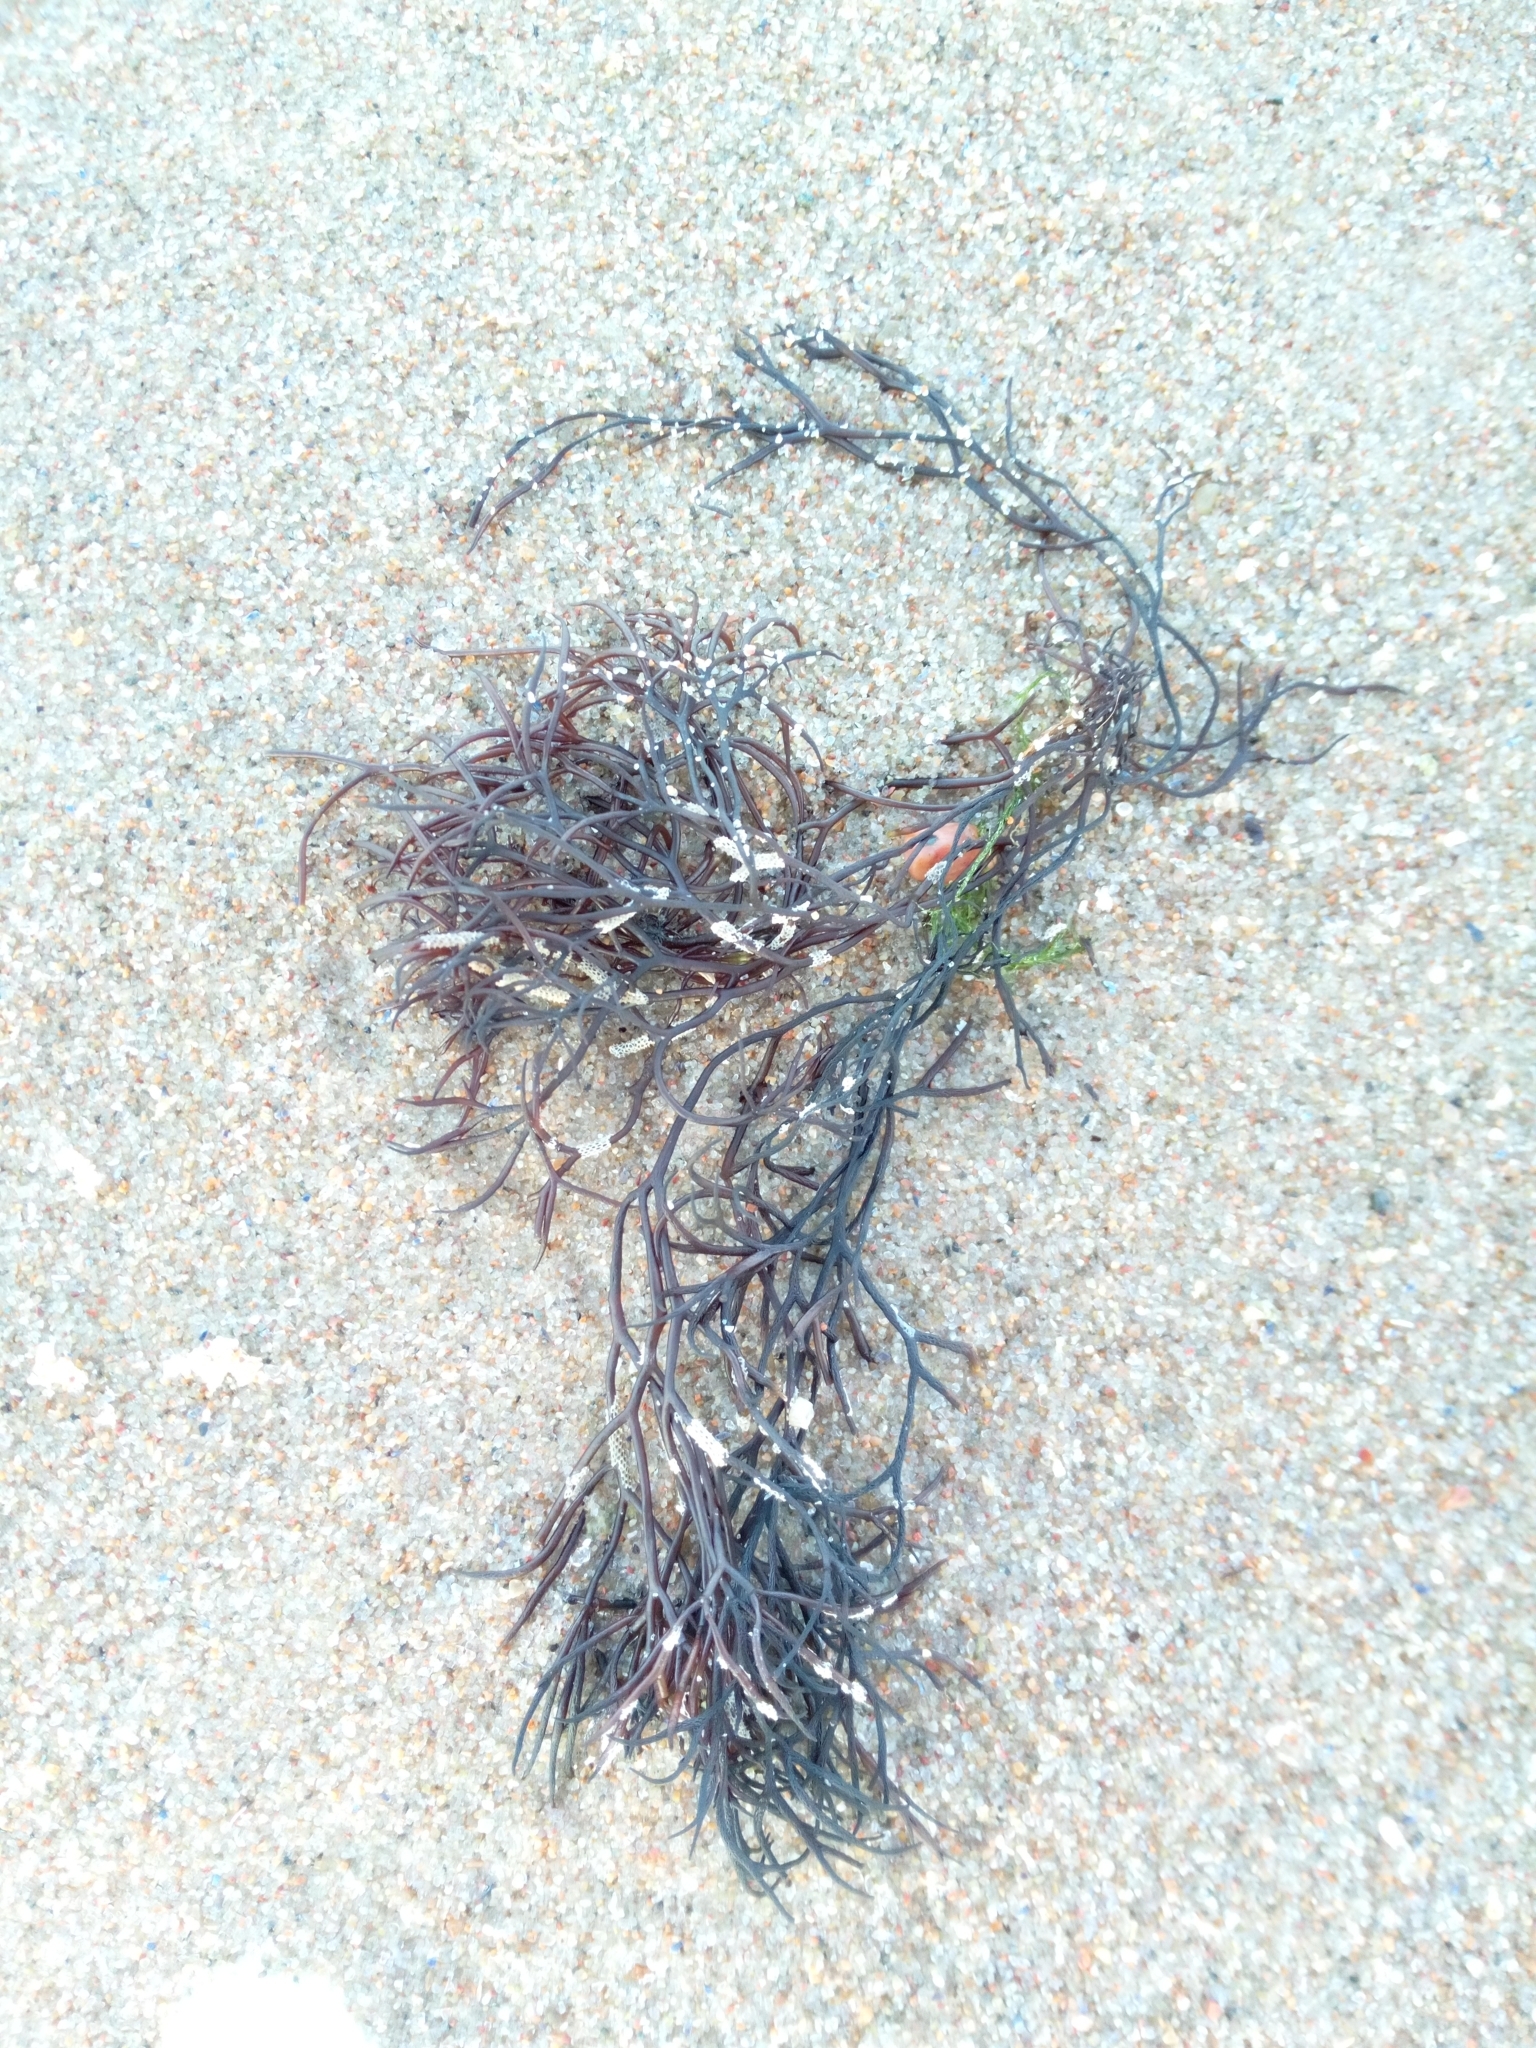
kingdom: Plantae
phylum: Rhodophyta
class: Florideophyceae
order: Gigartinales
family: Furcellariaceae
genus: Furcellaria
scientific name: Furcellaria lumbricalis
